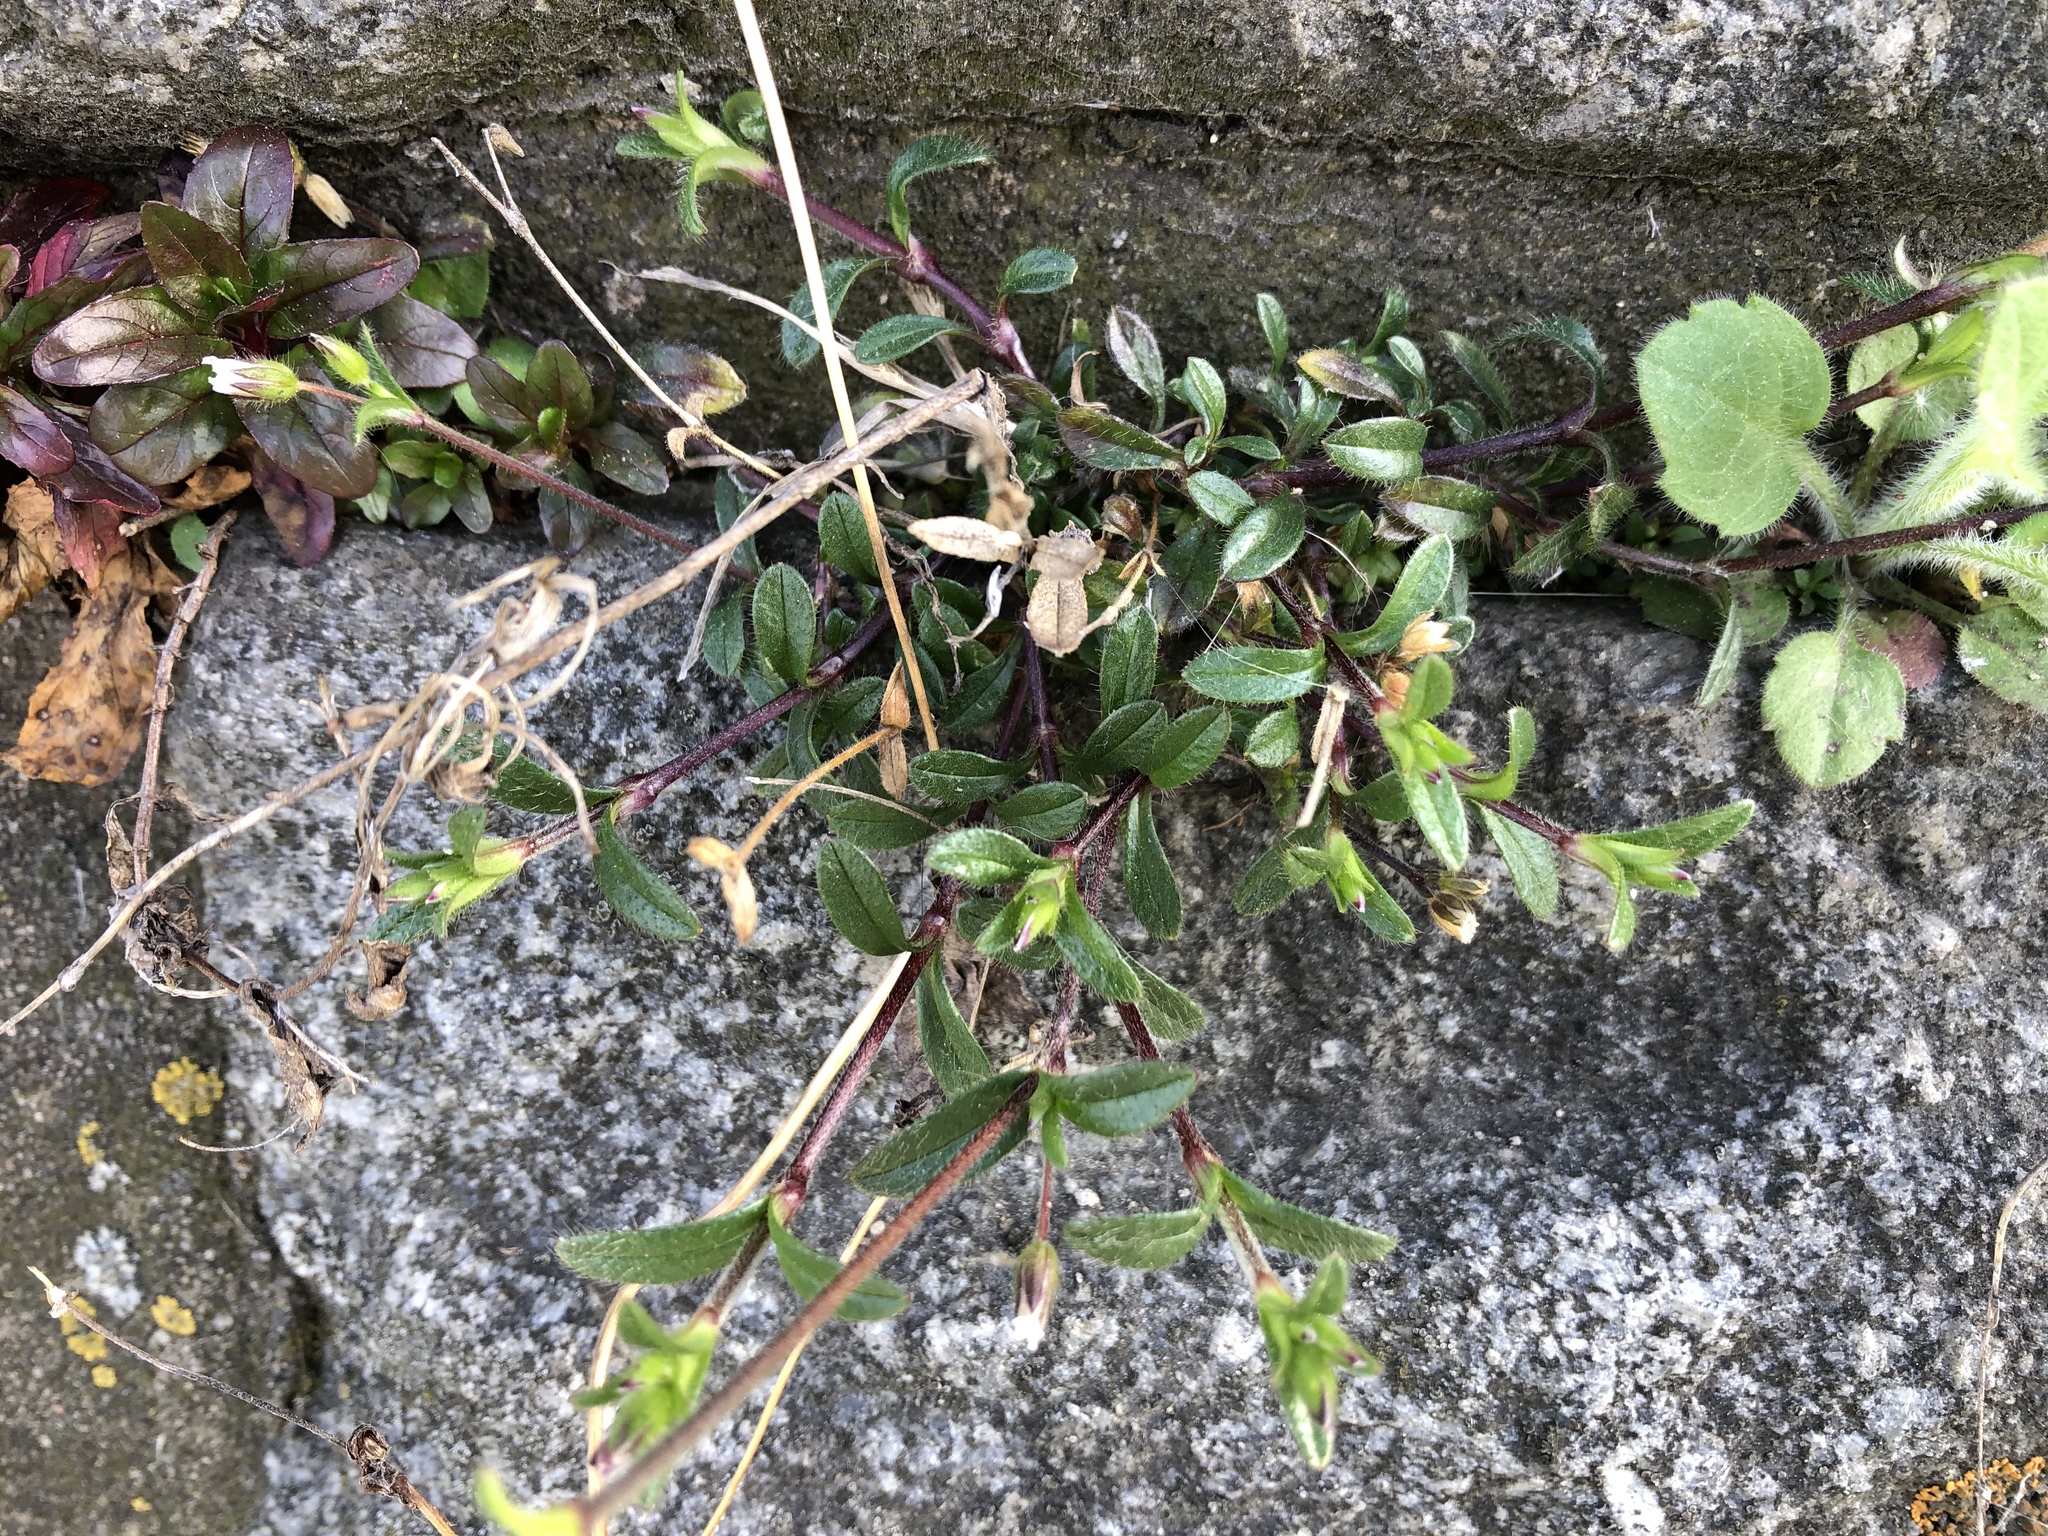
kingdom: Plantae
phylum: Tracheophyta
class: Magnoliopsida
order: Caryophyllales
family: Caryophyllaceae
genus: Cerastium
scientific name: Cerastium holosteoides
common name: Big chickweed
